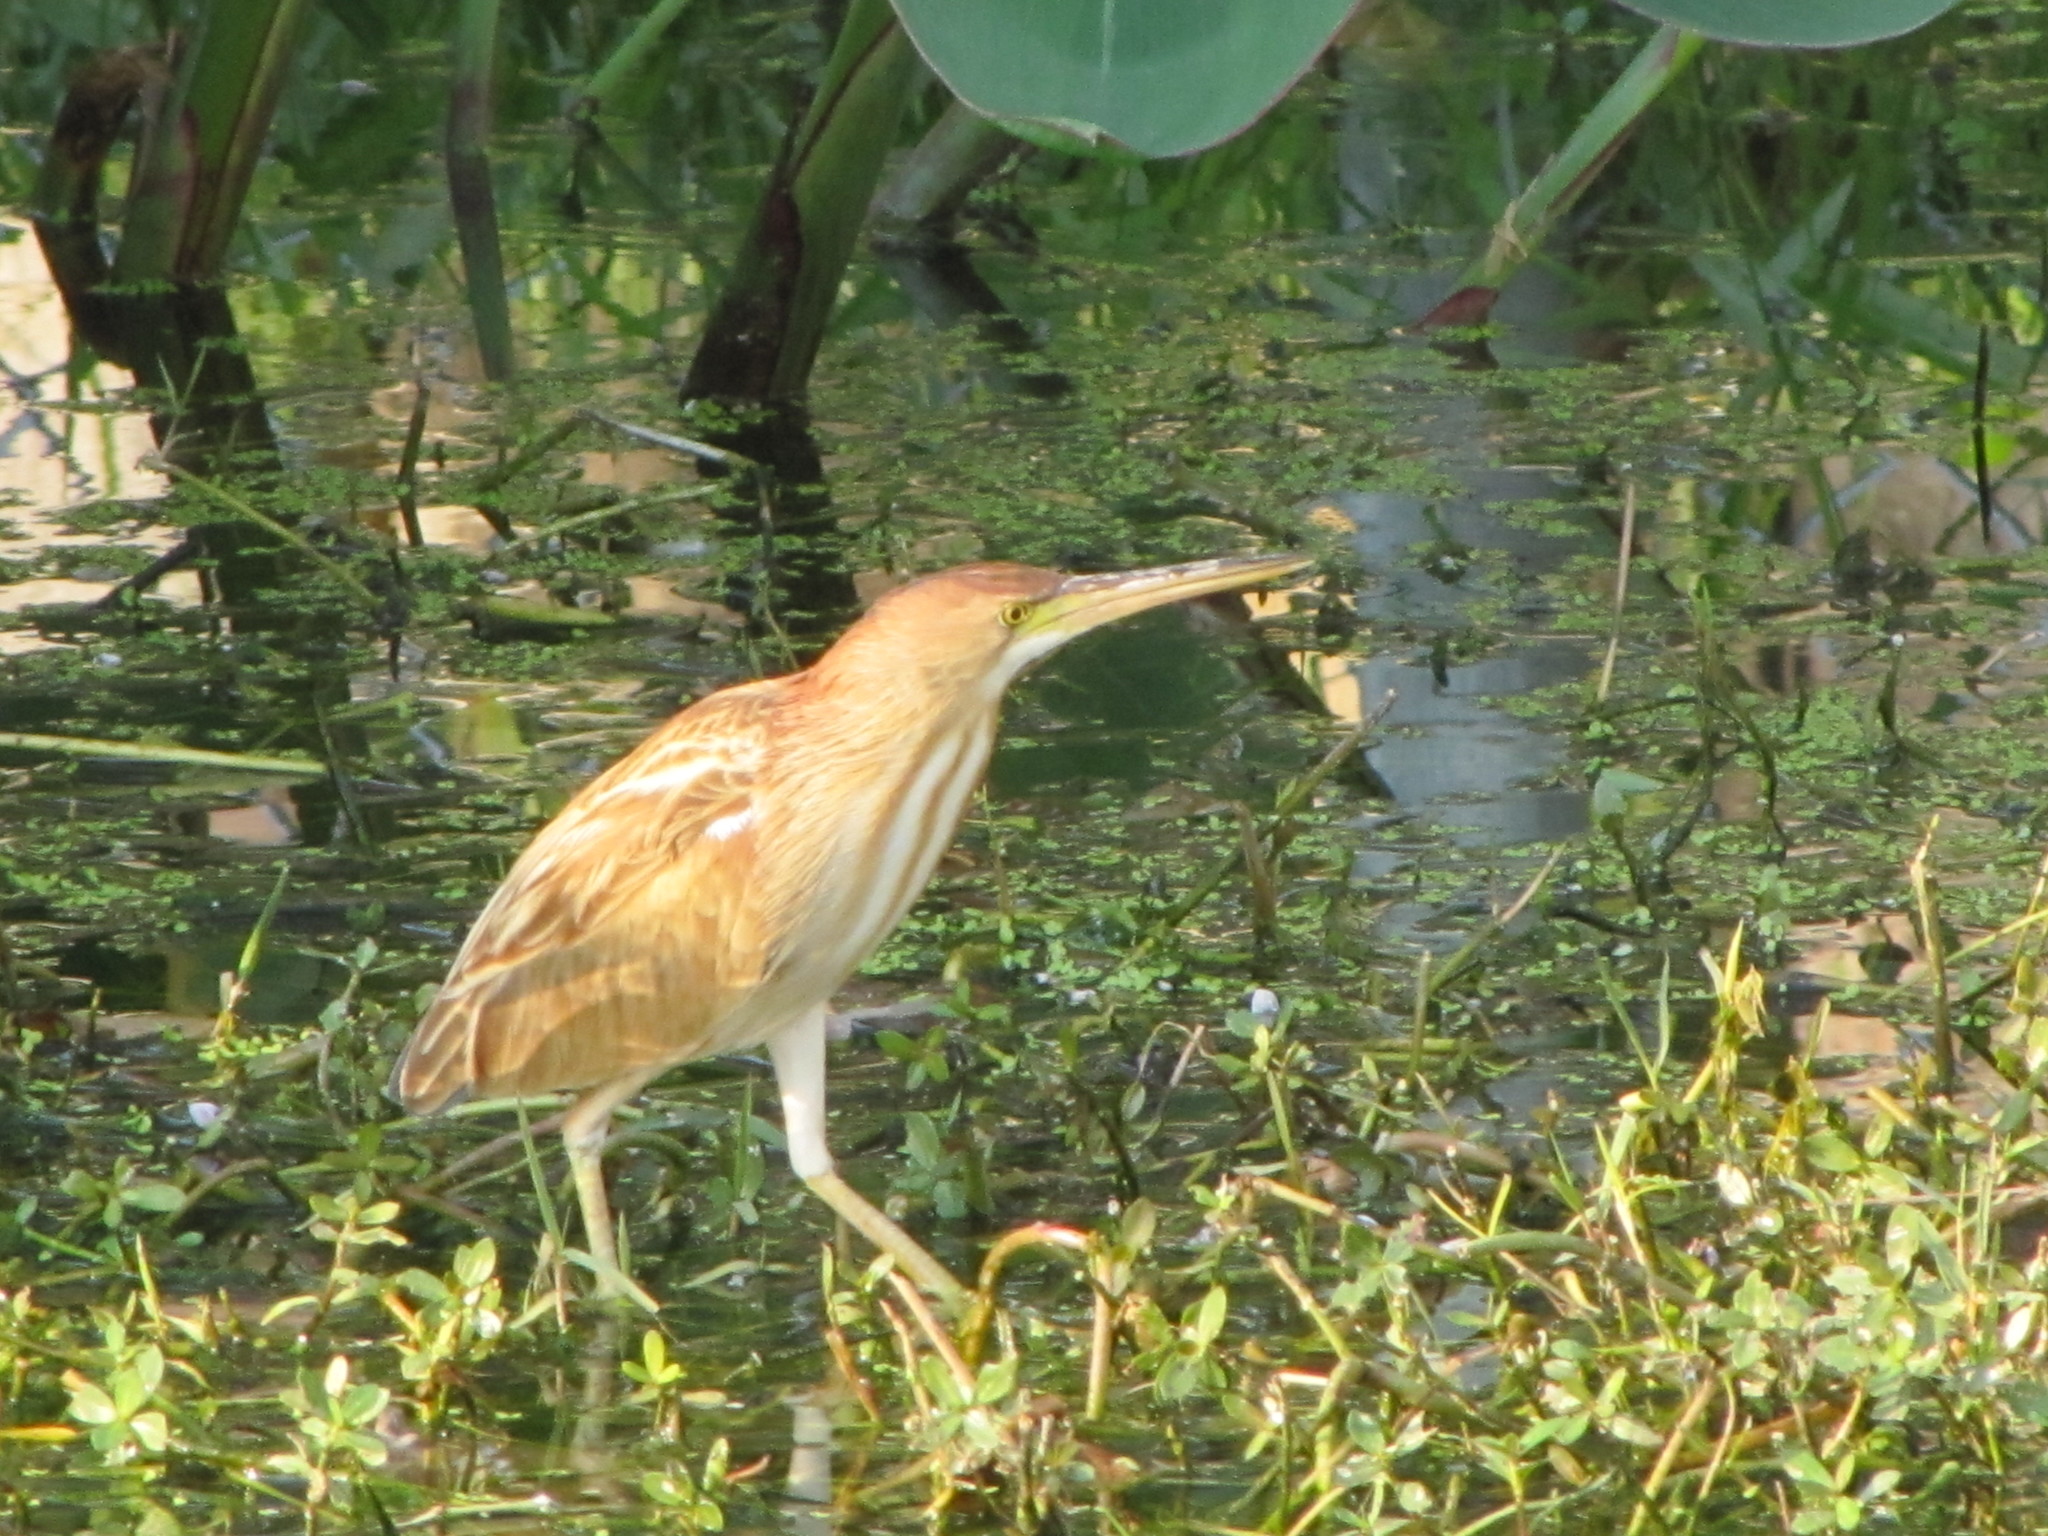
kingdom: Animalia
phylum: Chordata
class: Aves
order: Pelecaniformes
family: Ardeidae
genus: Ixobrychus
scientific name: Ixobrychus sinensis
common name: Yellow bittern
